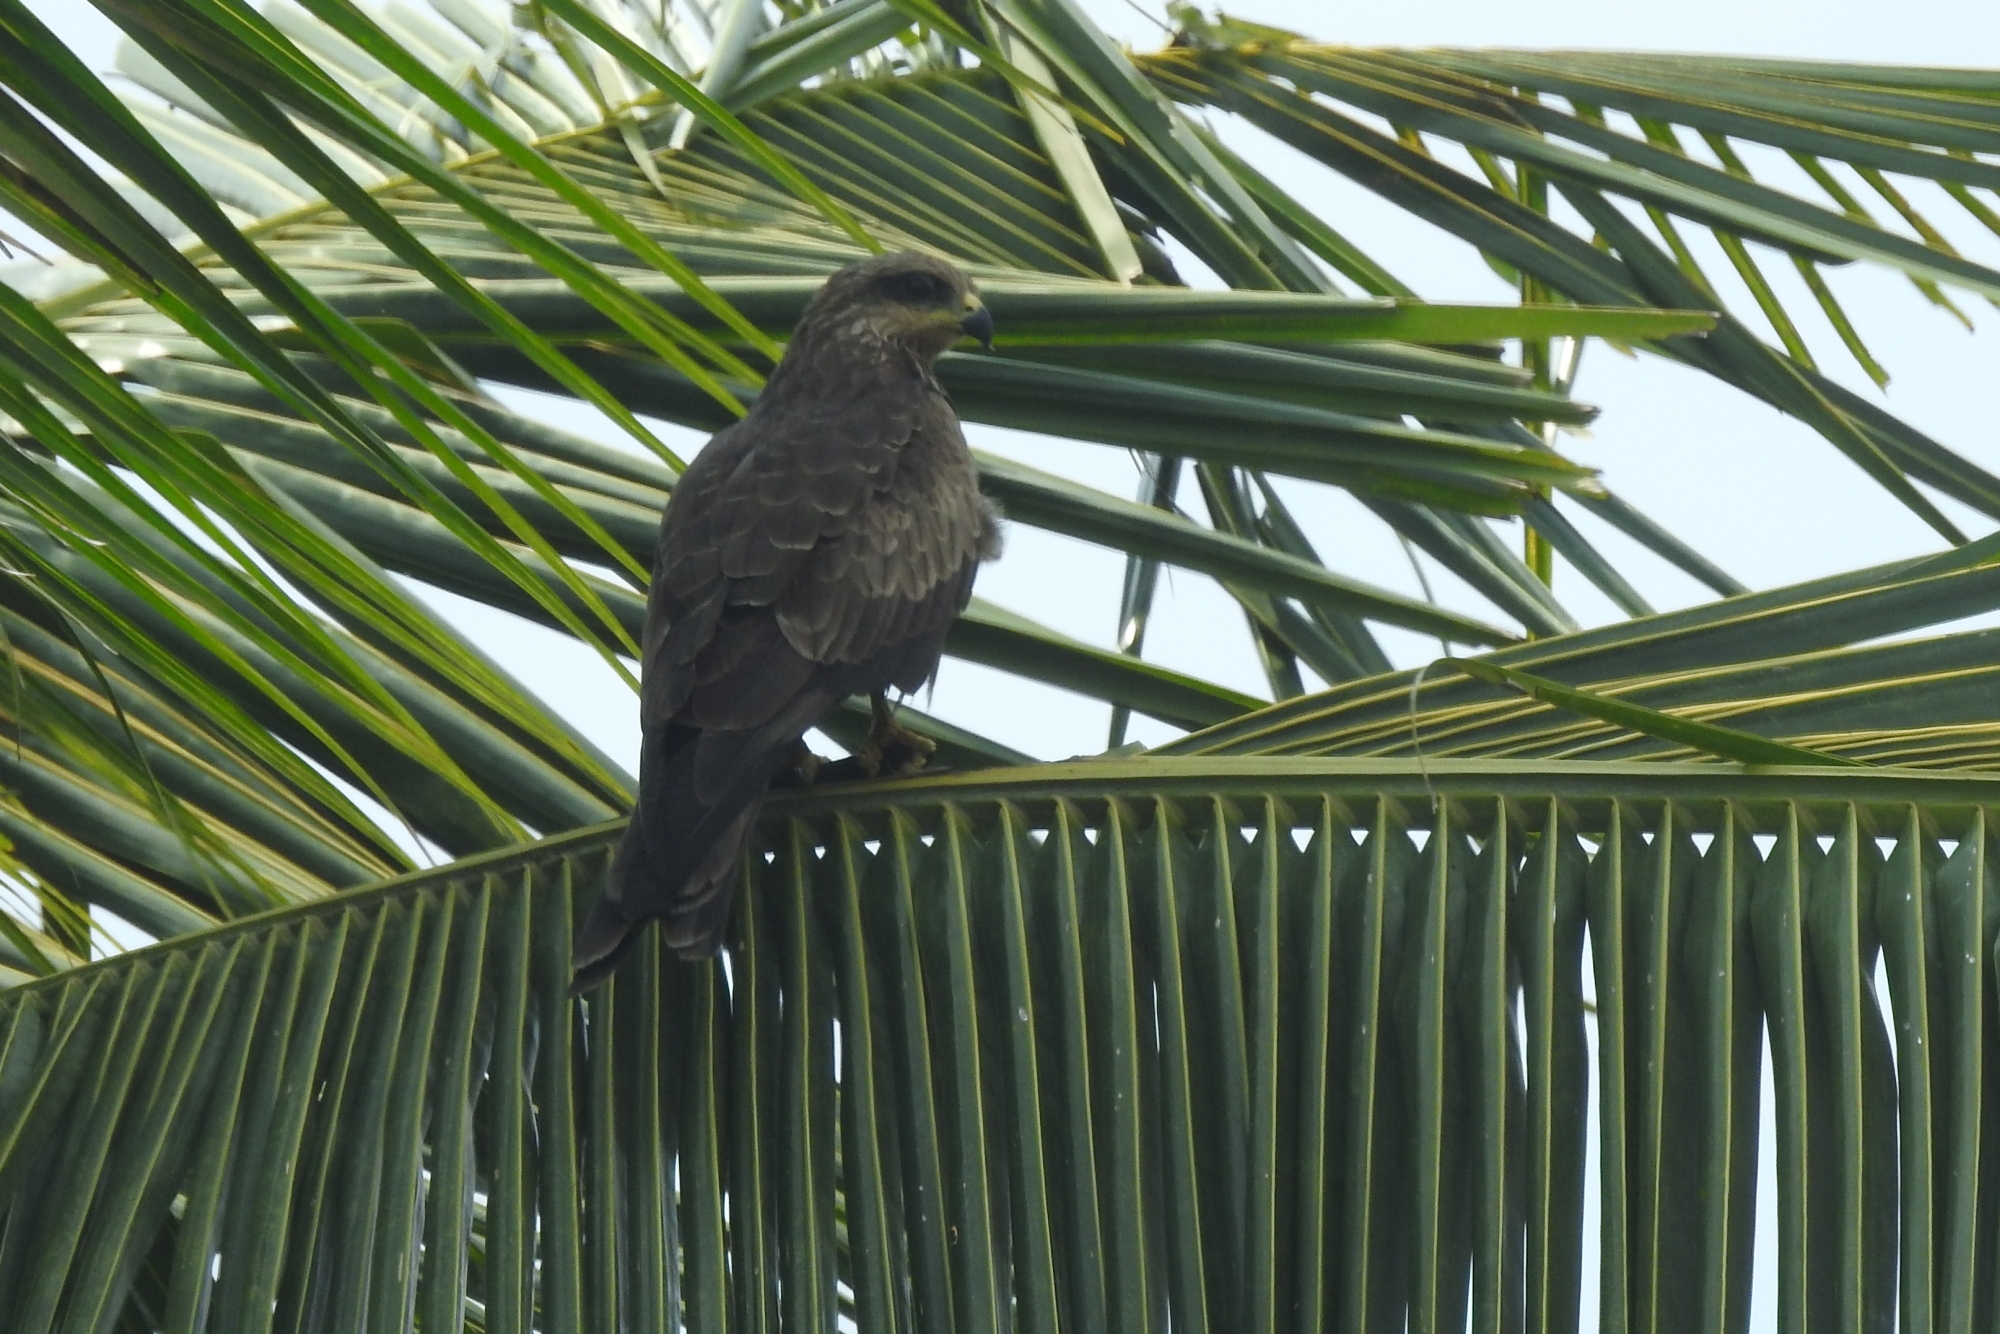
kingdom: Animalia
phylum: Chordata
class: Aves
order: Accipitriformes
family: Accipitridae
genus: Milvus
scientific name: Milvus migrans
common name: Black kite
